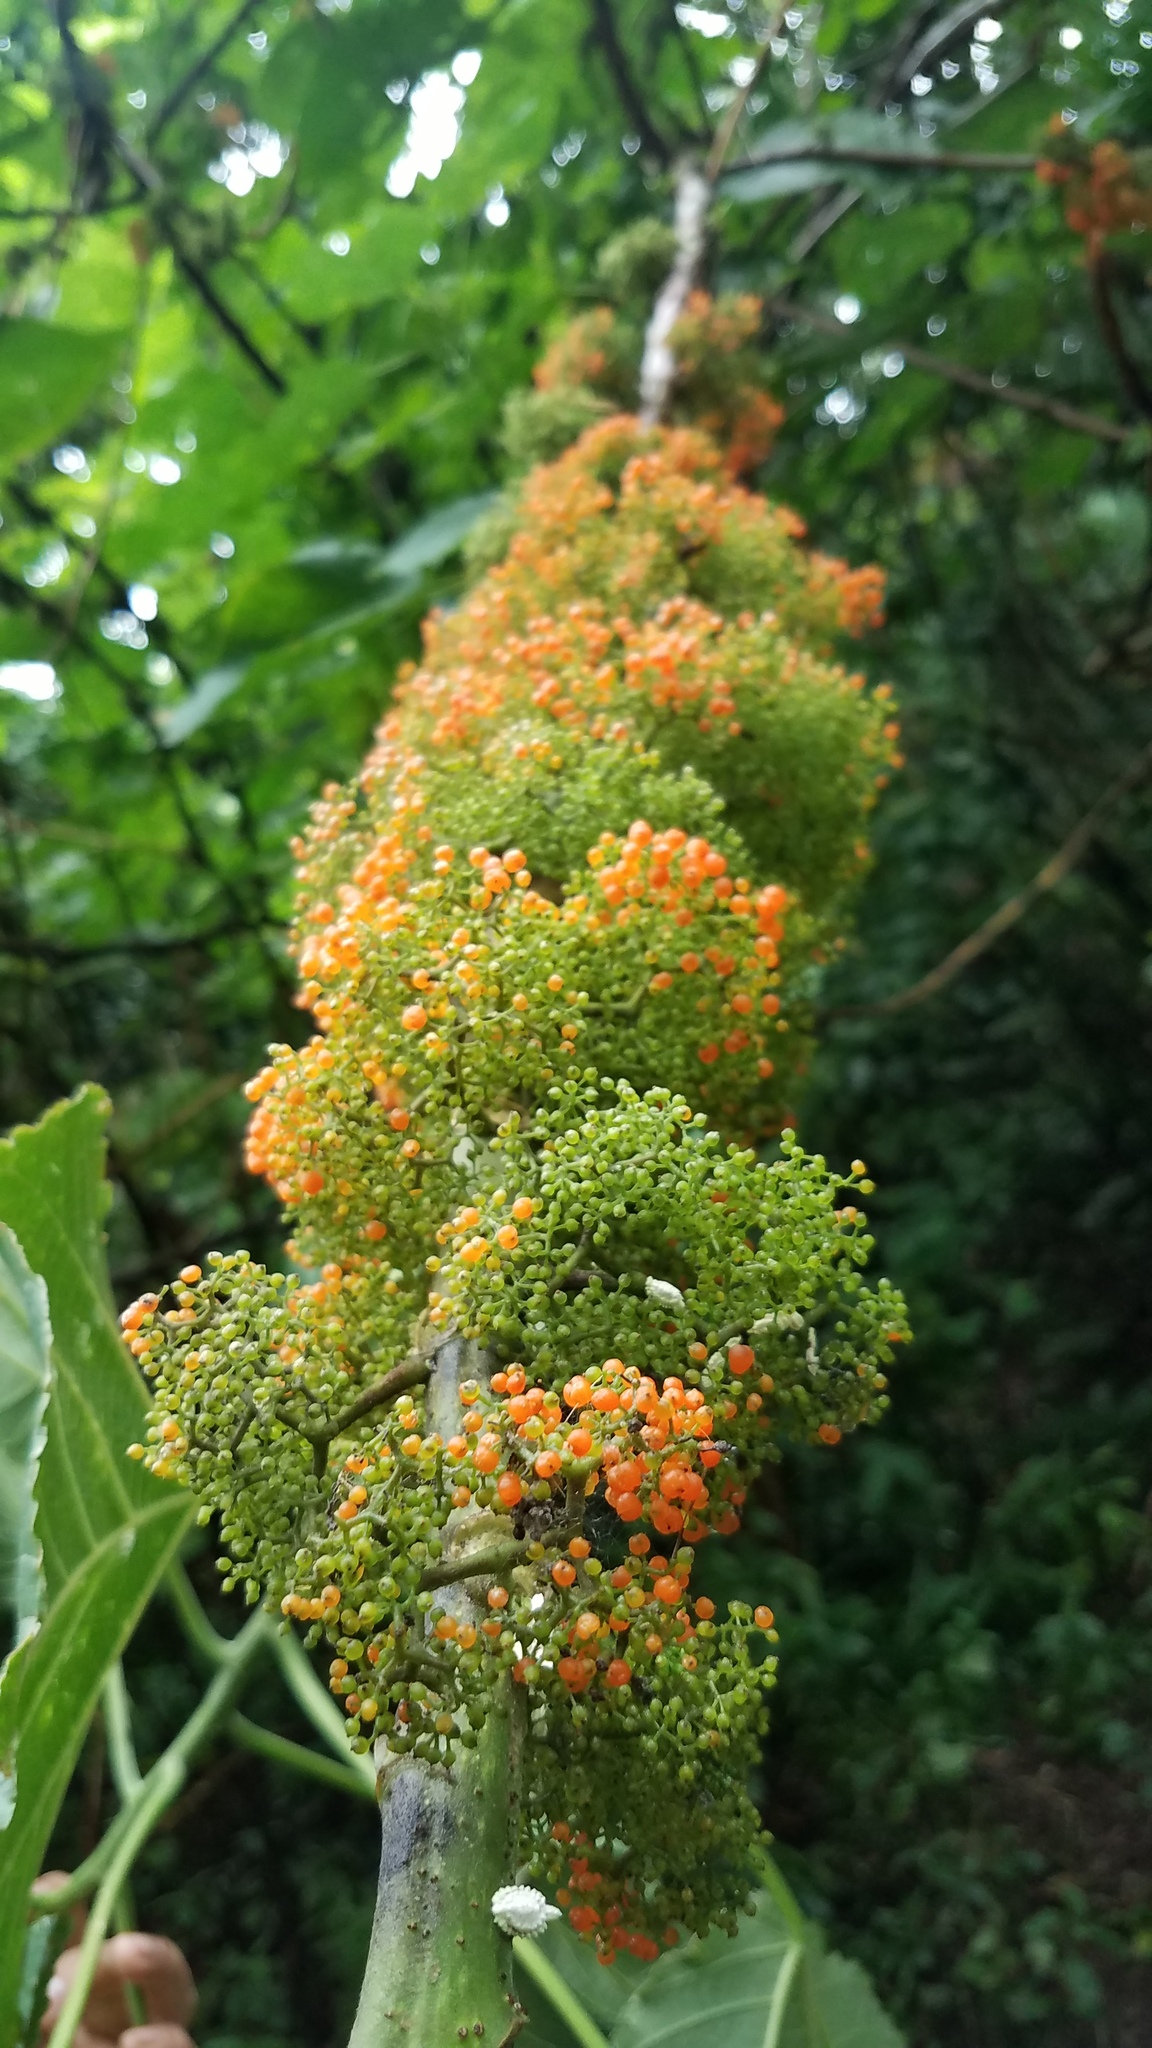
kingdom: Plantae
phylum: Tracheophyta
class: Magnoliopsida
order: Rosales
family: Urticaceae
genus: Urera
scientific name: Urera caracasana
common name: Flameberry
